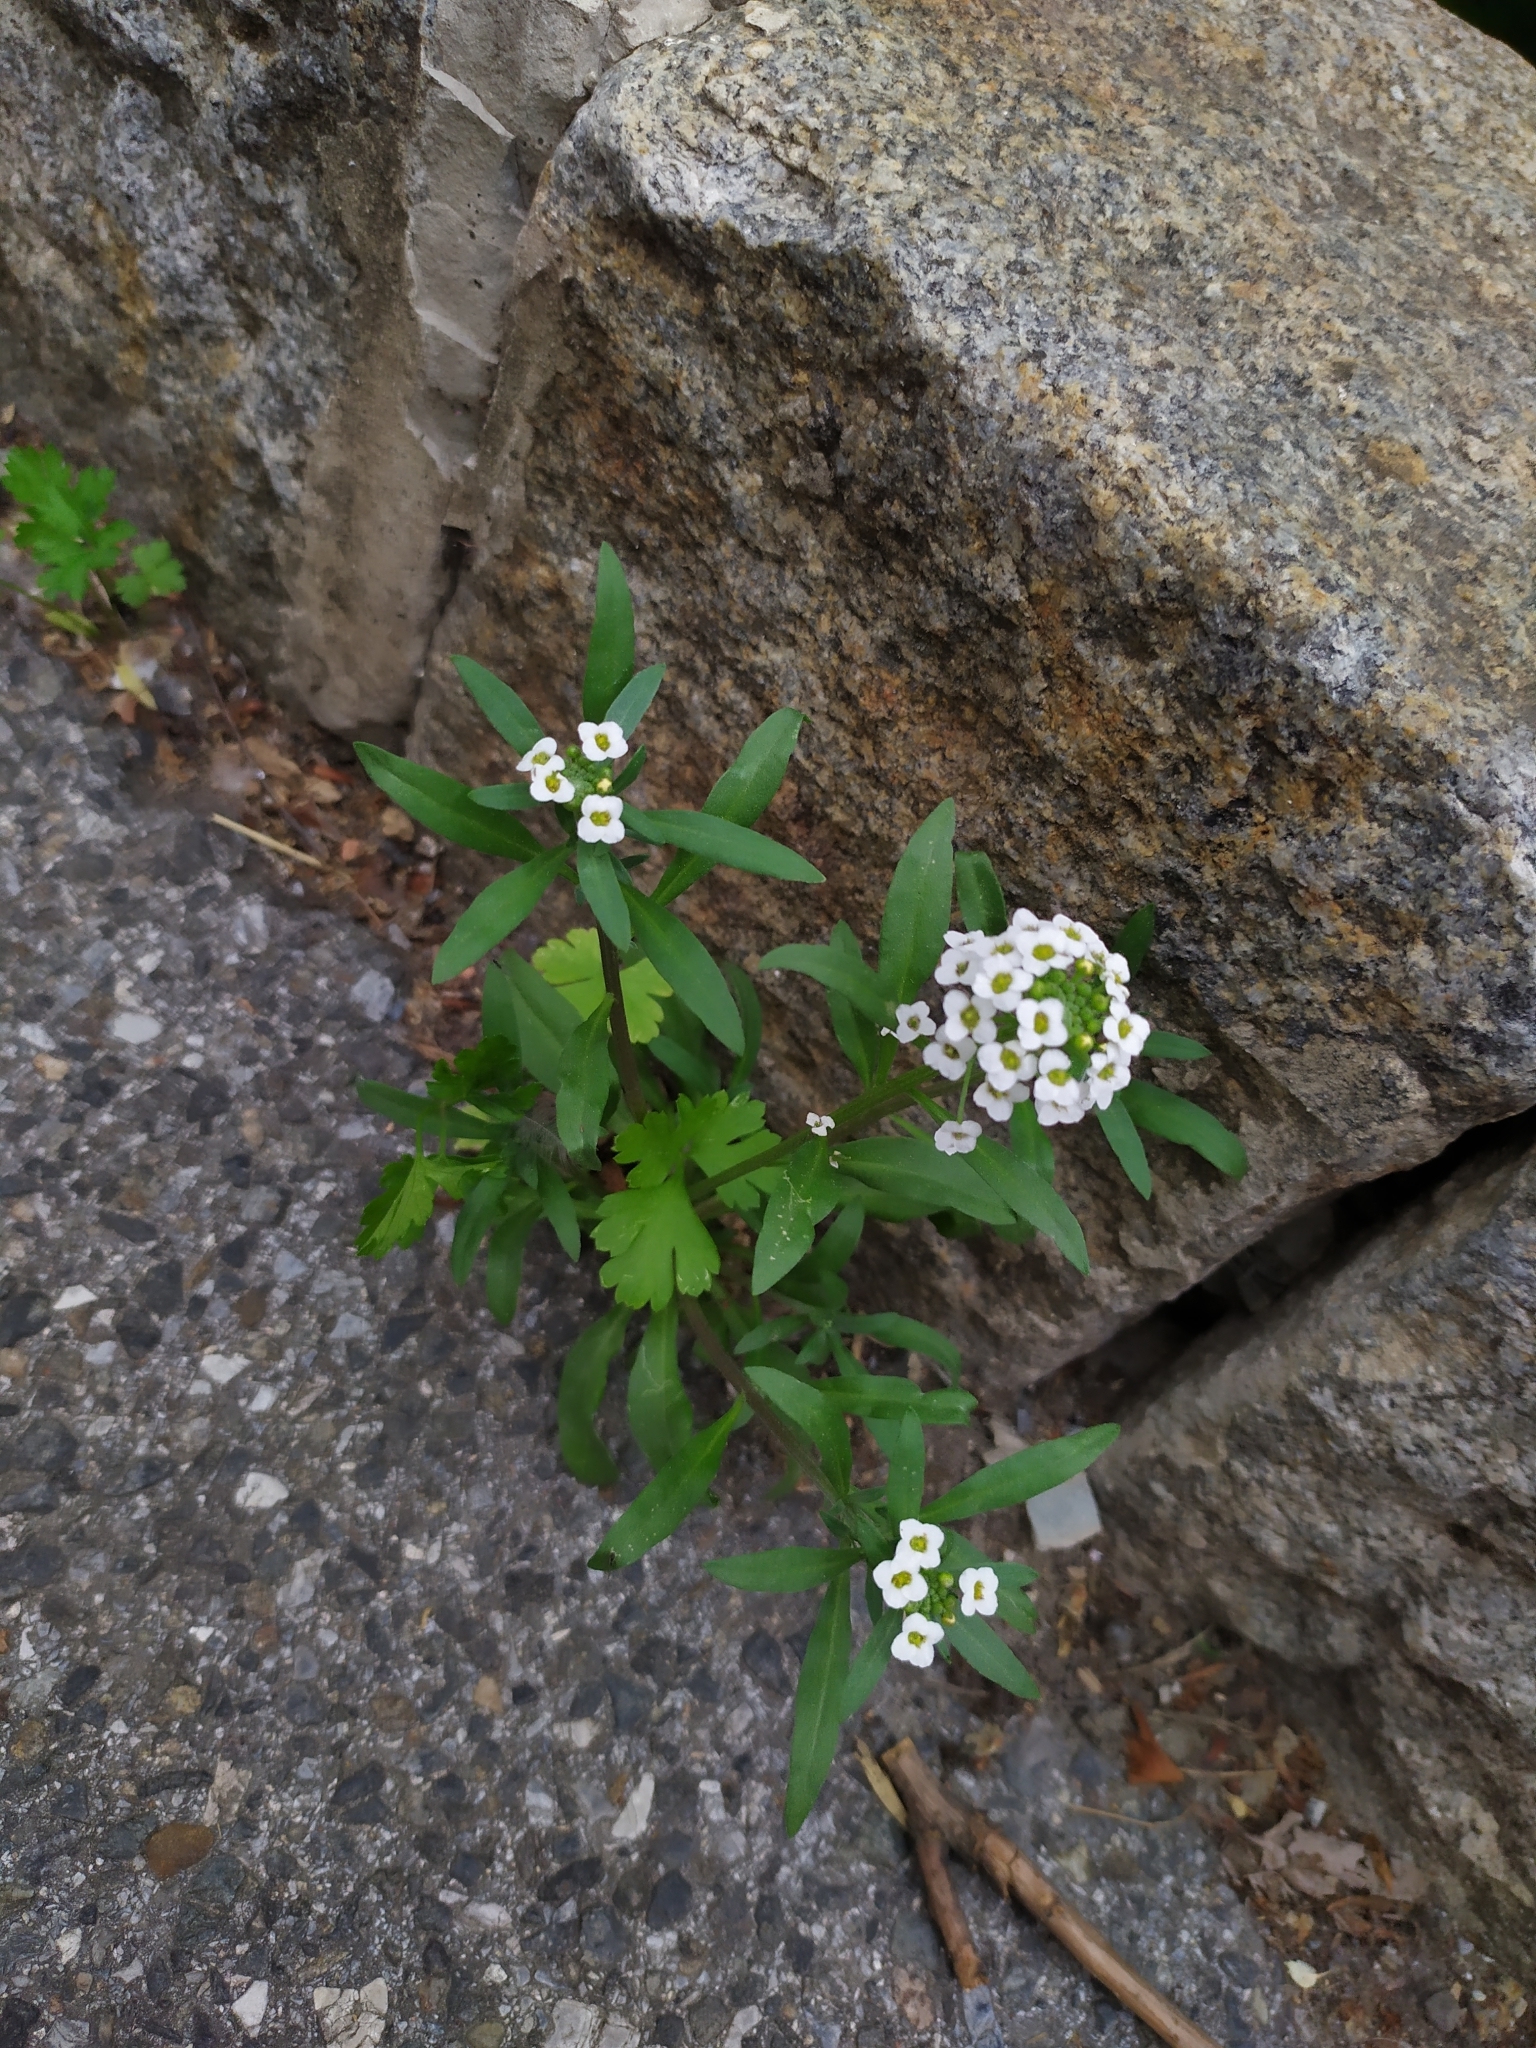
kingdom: Plantae
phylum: Tracheophyta
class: Magnoliopsida
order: Brassicales
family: Brassicaceae
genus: Lobularia
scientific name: Lobularia maritima
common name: Sweet alison
